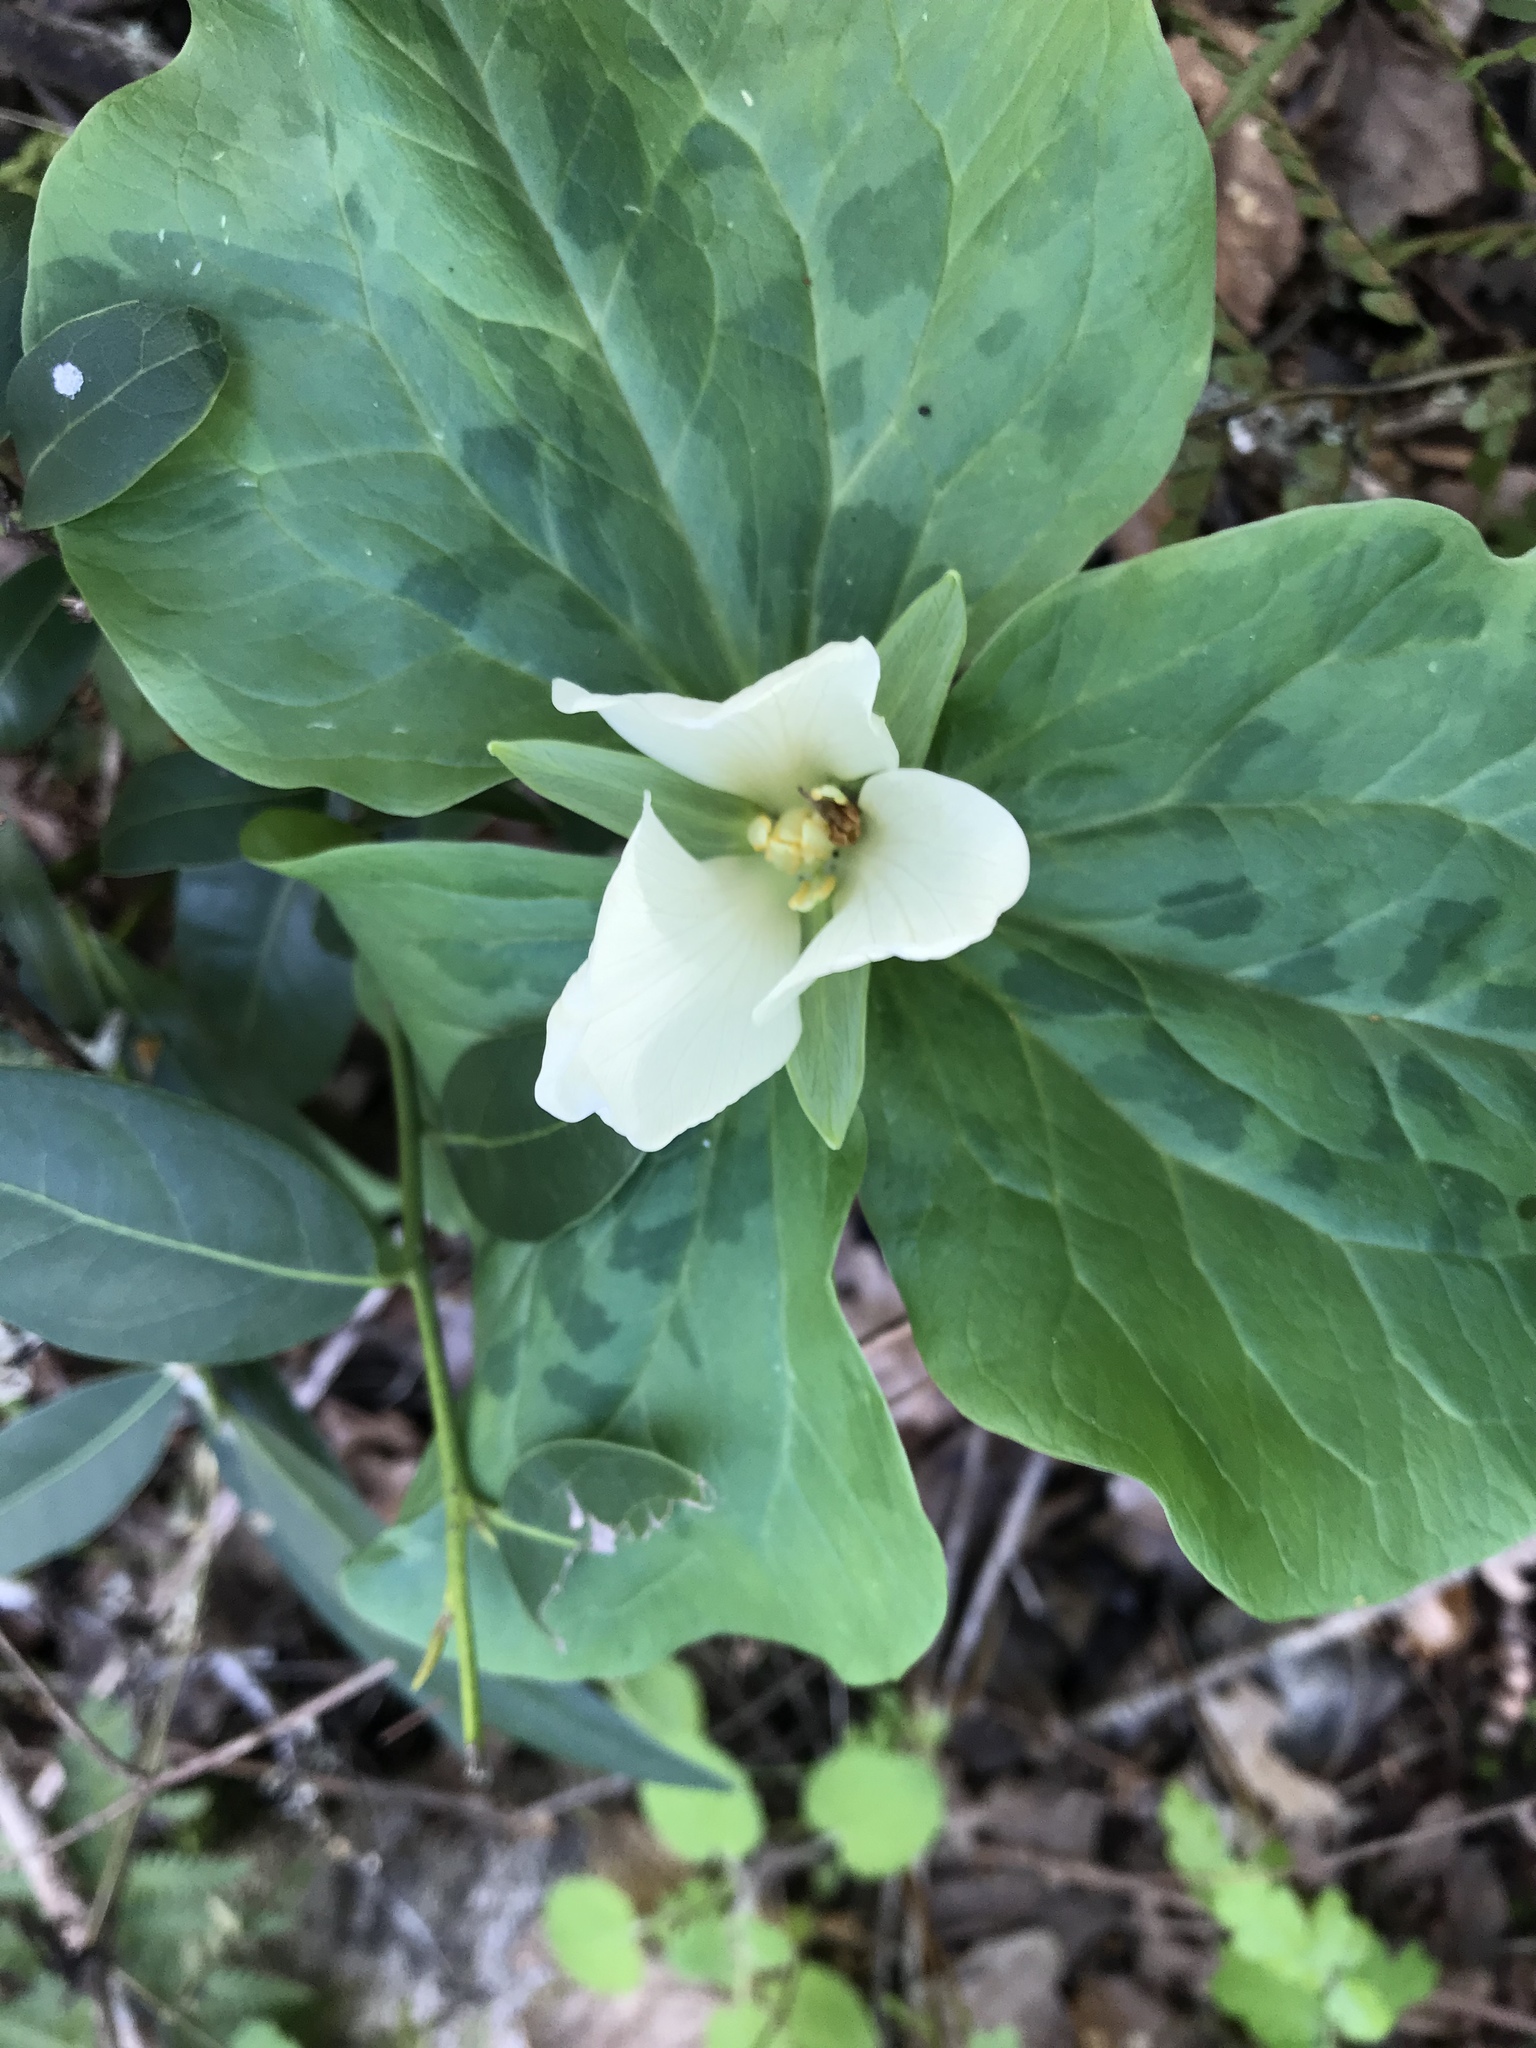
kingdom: Plantae
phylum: Tracheophyta
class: Liliopsida
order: Liliales
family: Melanthiaceae
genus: Trillium
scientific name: Trillium albidum
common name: Freeman's trillium
